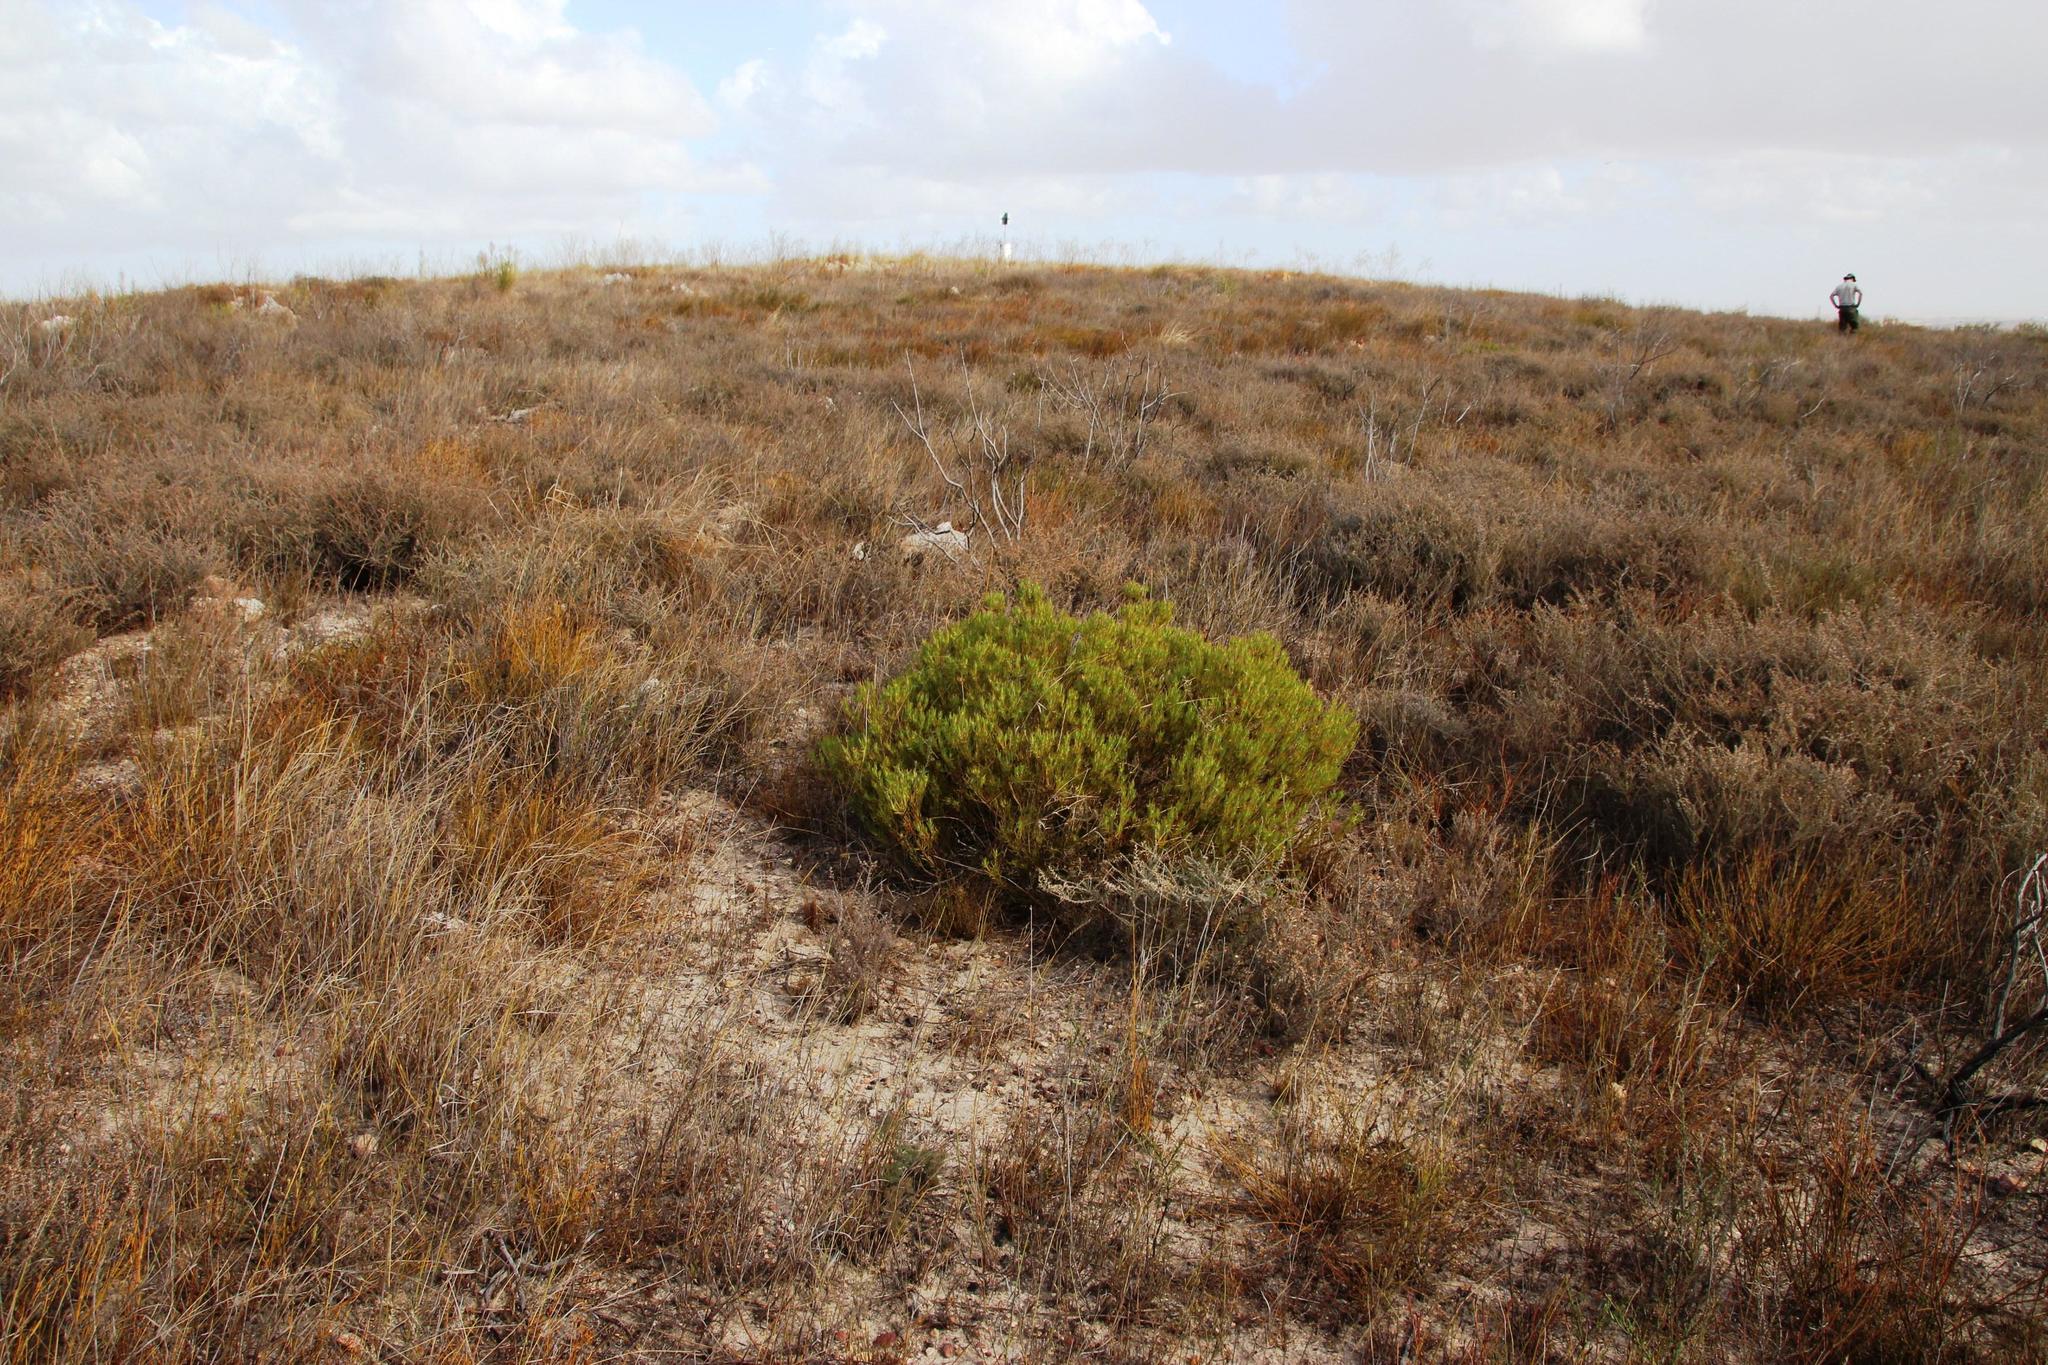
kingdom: Plantae
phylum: Tracheophyta
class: Magnoliopsida
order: Proteales
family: Proteaceae
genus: Leucadendron
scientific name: Leucadendron lanigerum
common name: Shale conebush
